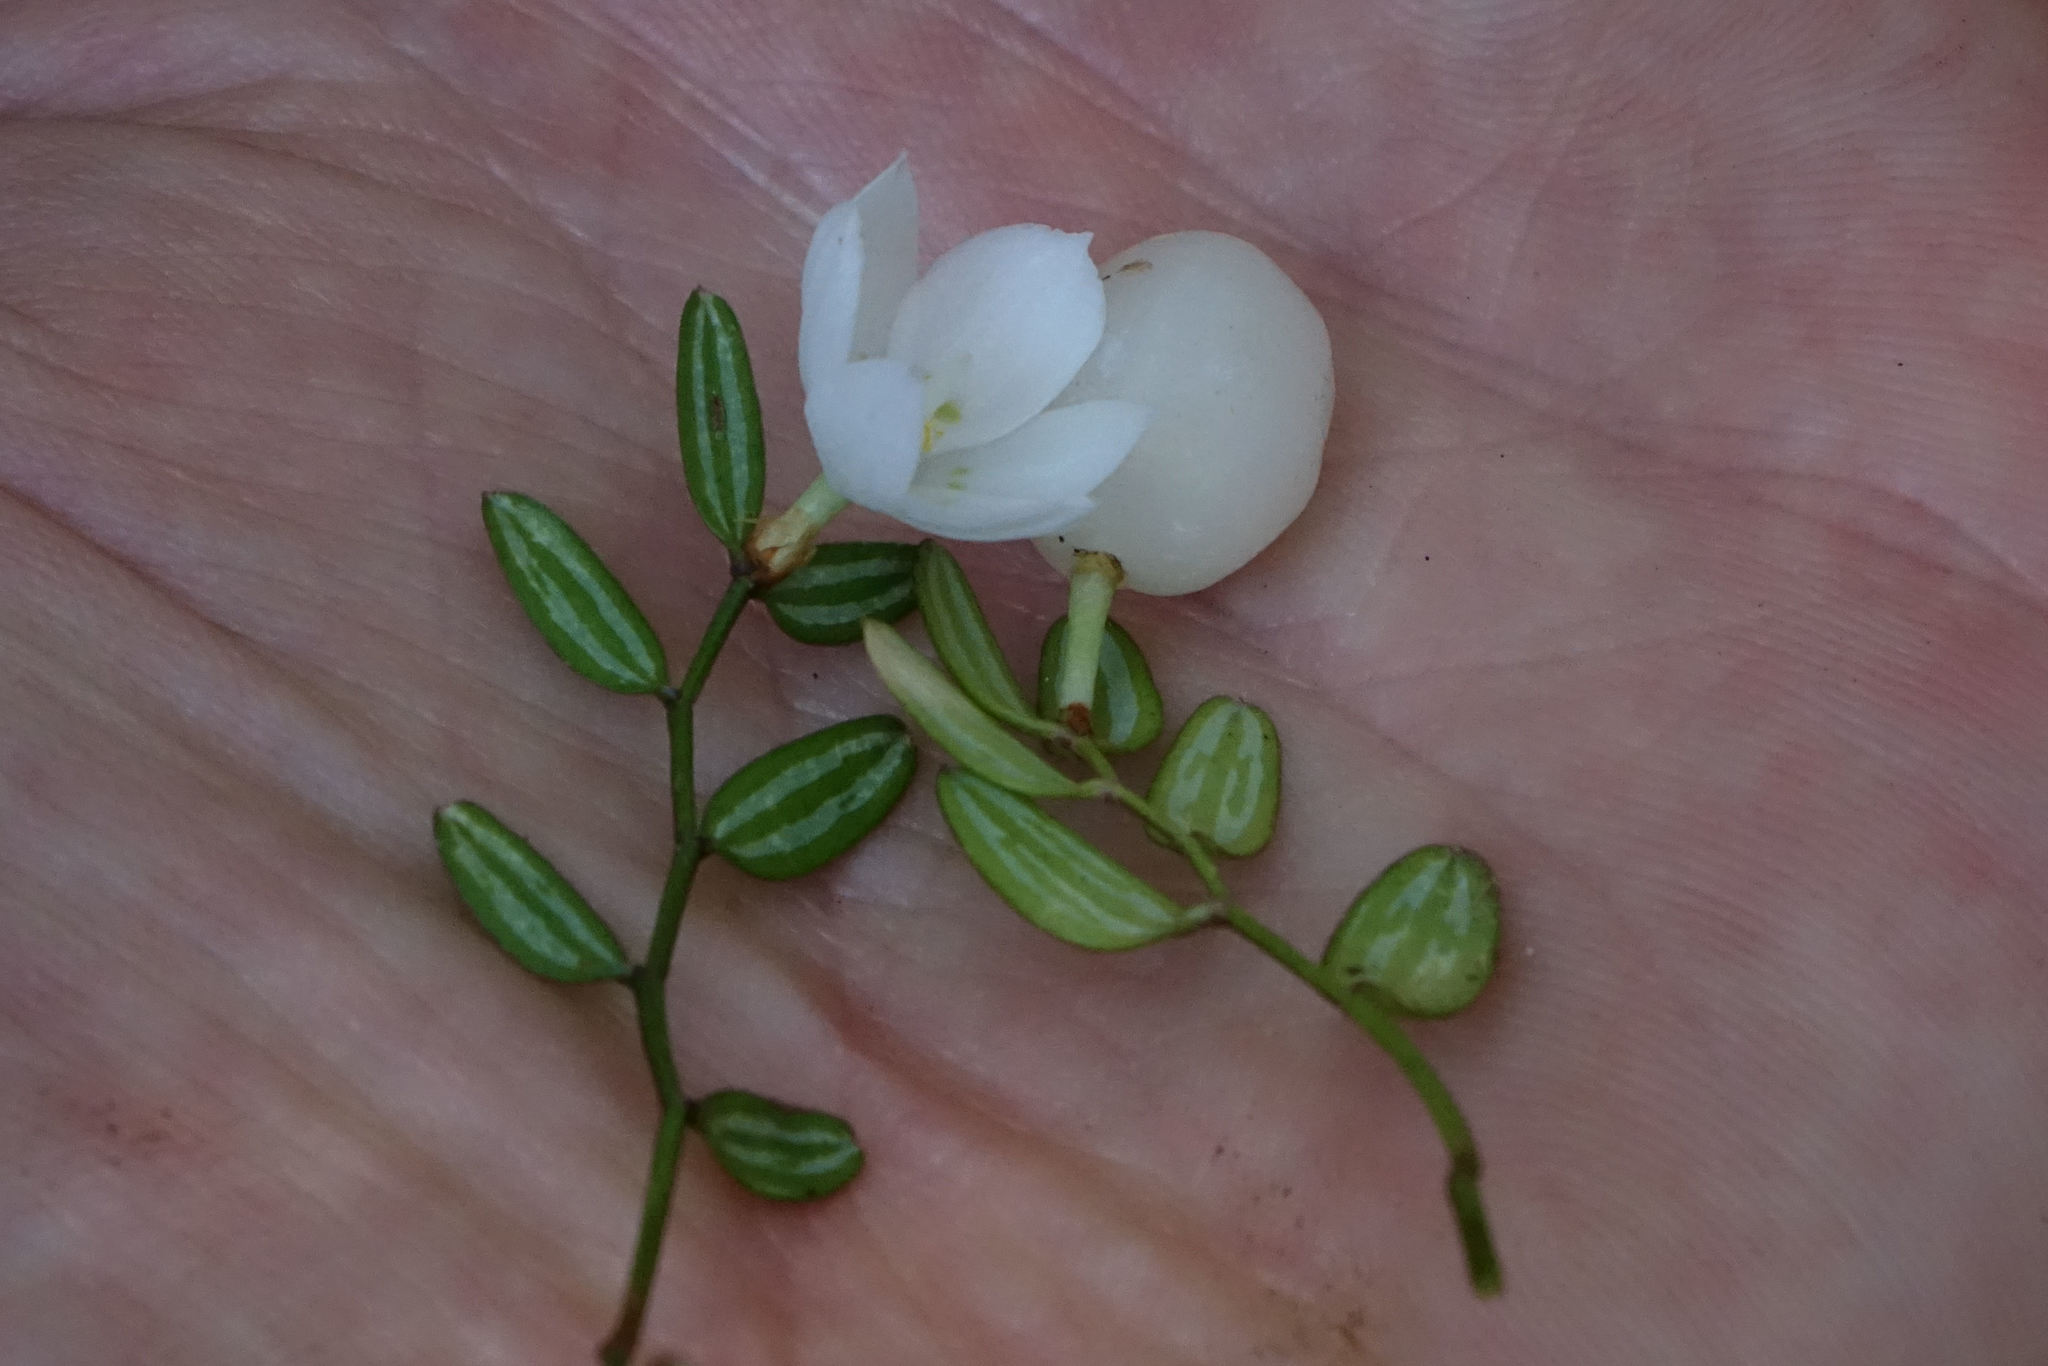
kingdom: Plantae
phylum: Tracheophyta
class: Liliopsida
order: Liliales
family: Alstroemeriaceae
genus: Luzuriaga
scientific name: Luzuriaga parviflora
